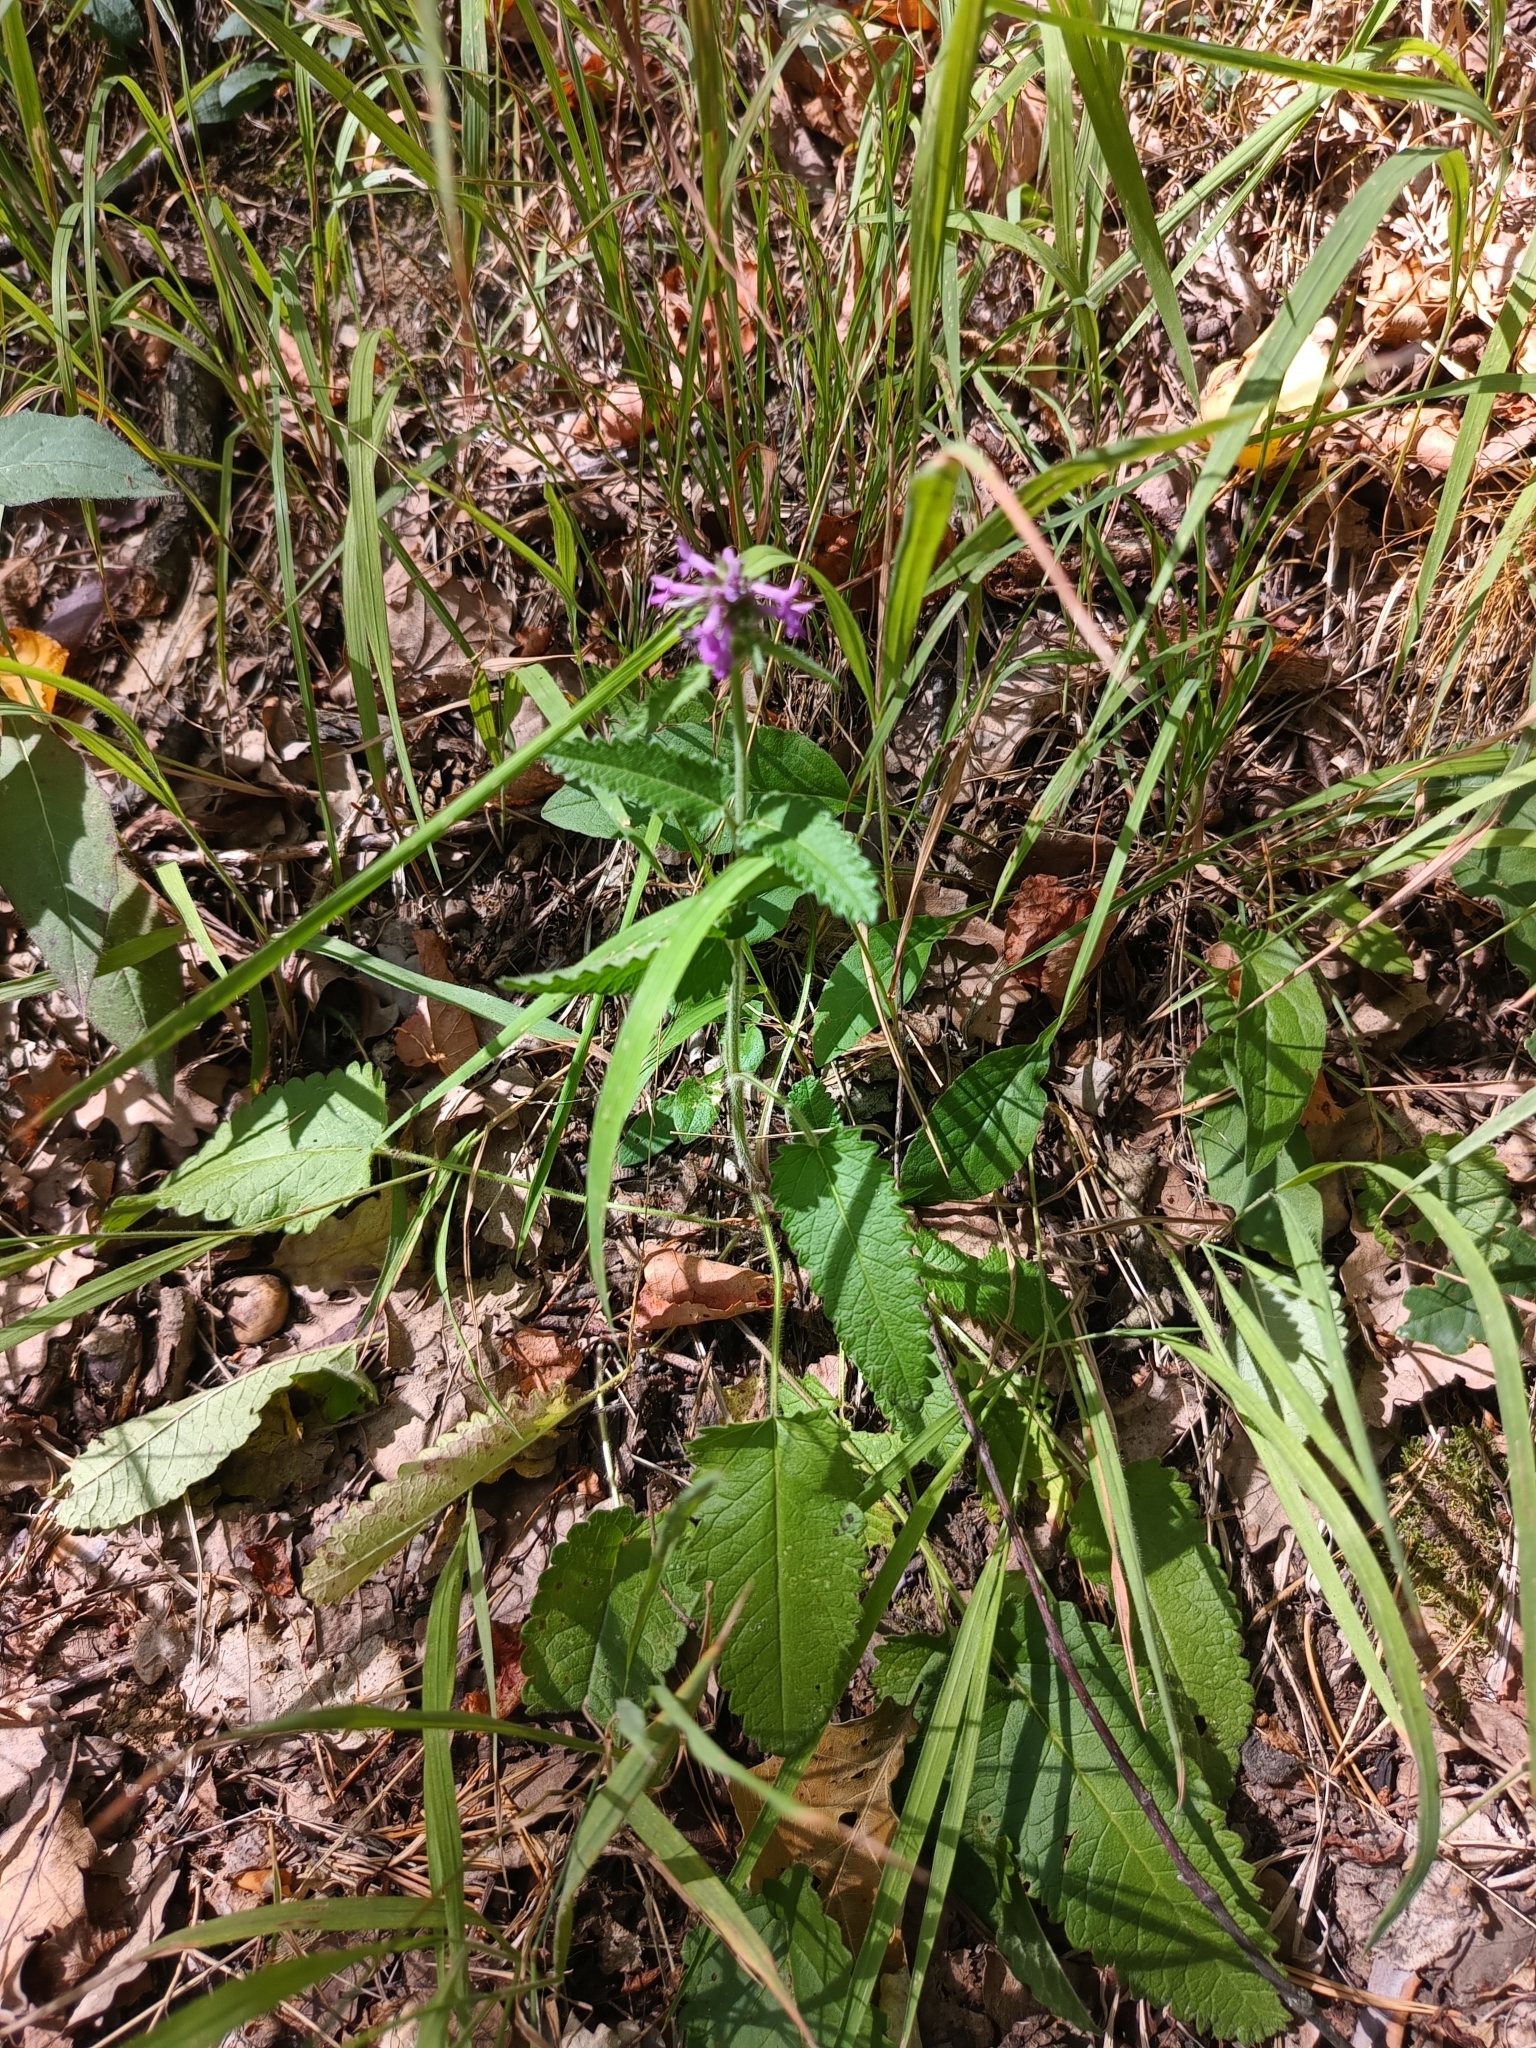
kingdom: Plantae
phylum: Tracheophyta
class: Magnoliopsida
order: Lamiales
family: Lamiaceae
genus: Betonica
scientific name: Betonica officinalis
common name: Bishop's-wort
